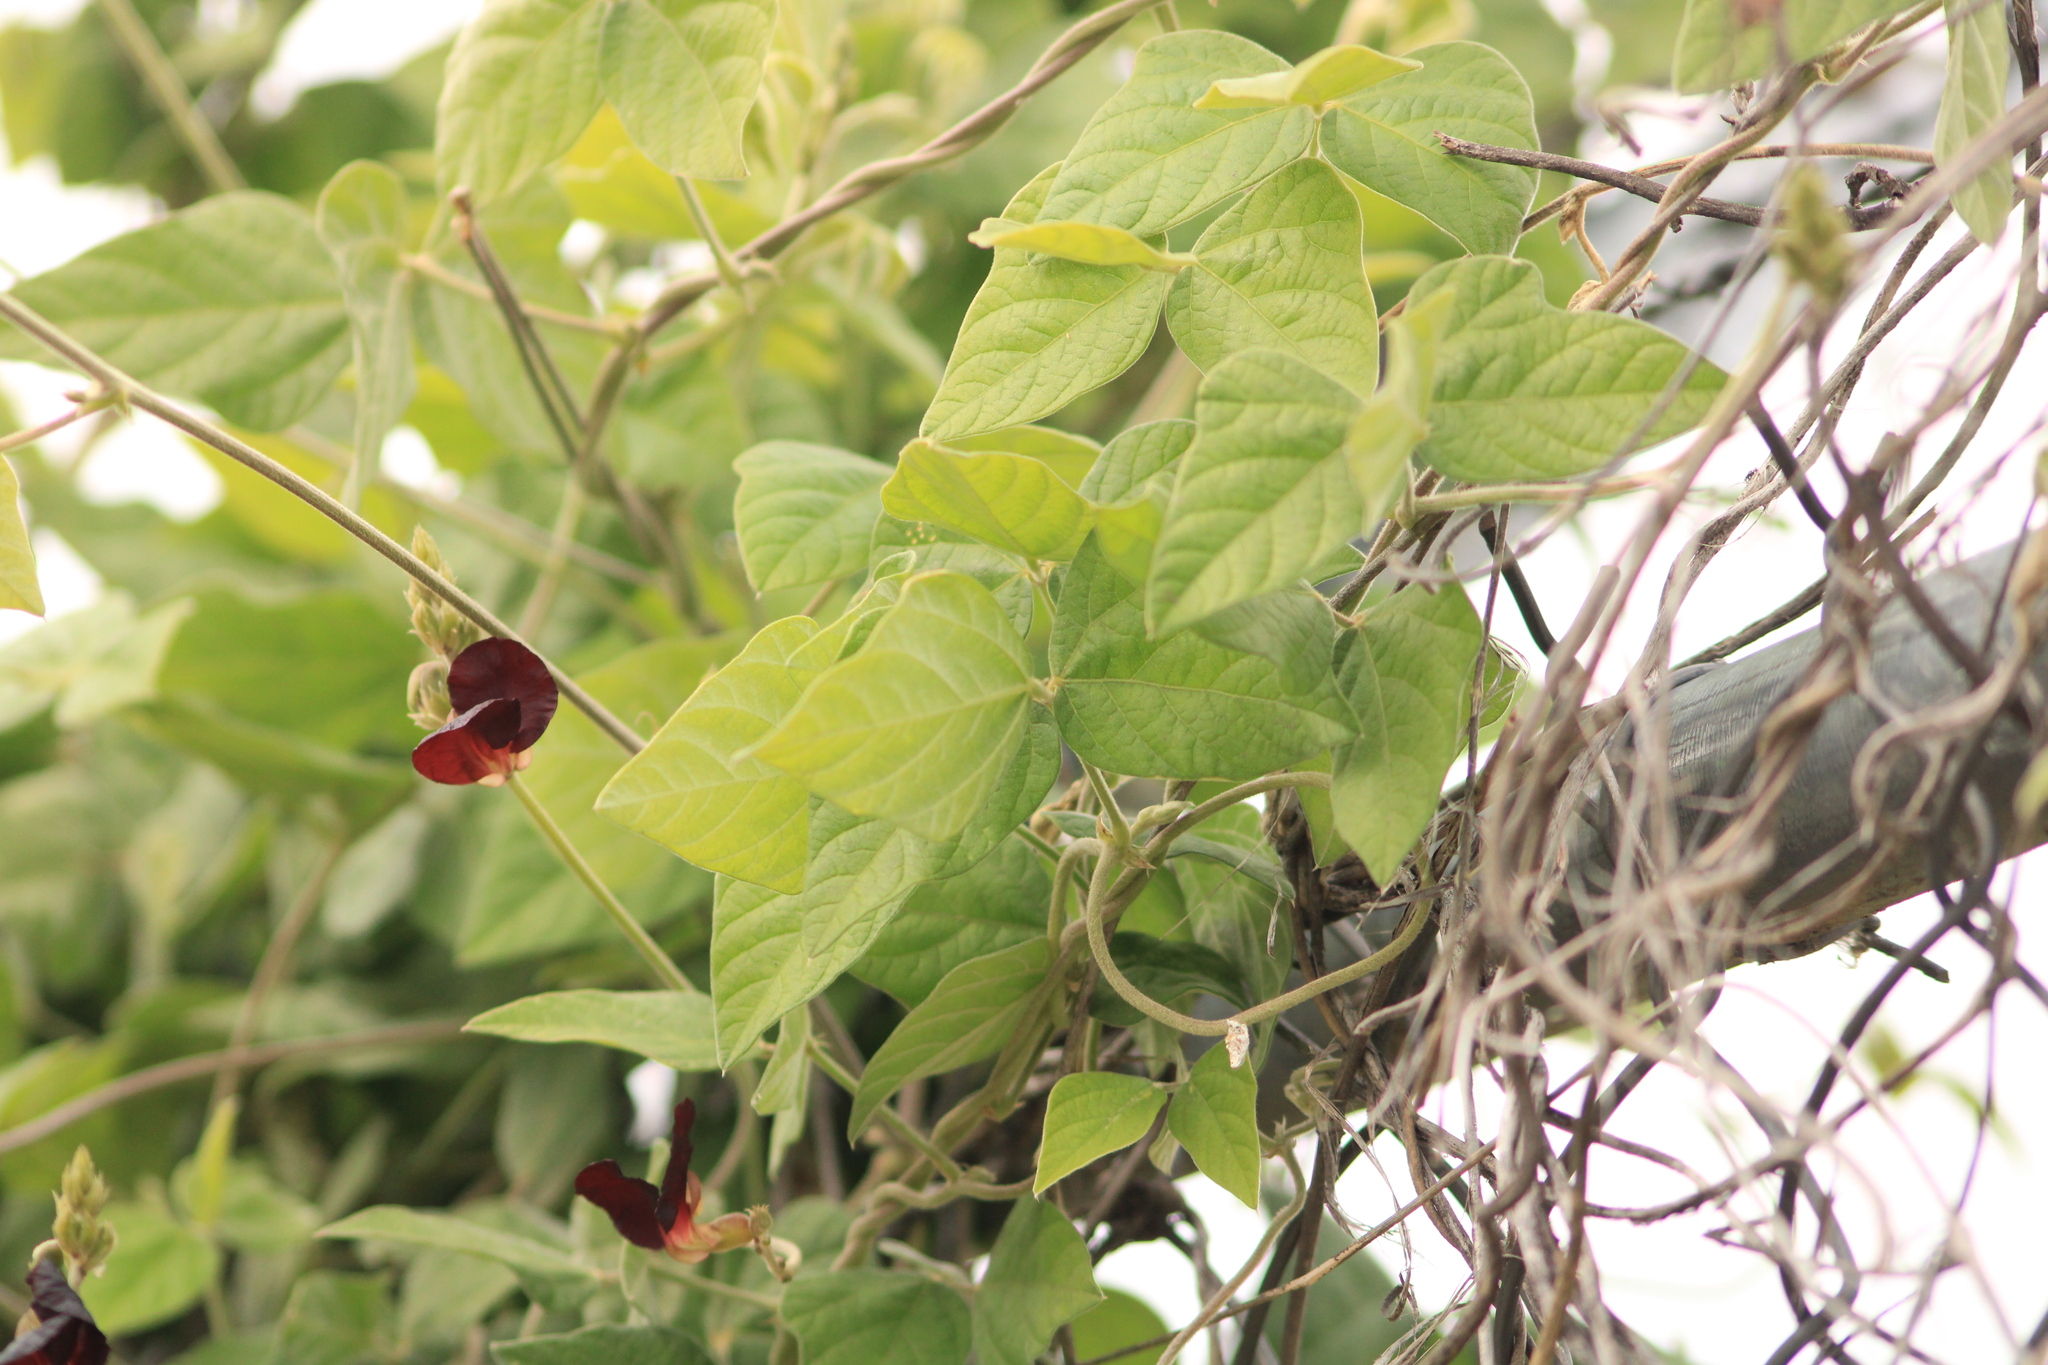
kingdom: Plantae
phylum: Tracheophyta
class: Magnoliopsida
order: Fabales
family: Fabaceae
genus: Macroptilium
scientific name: Macroptilium atropurpureum
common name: Purple bushbean
